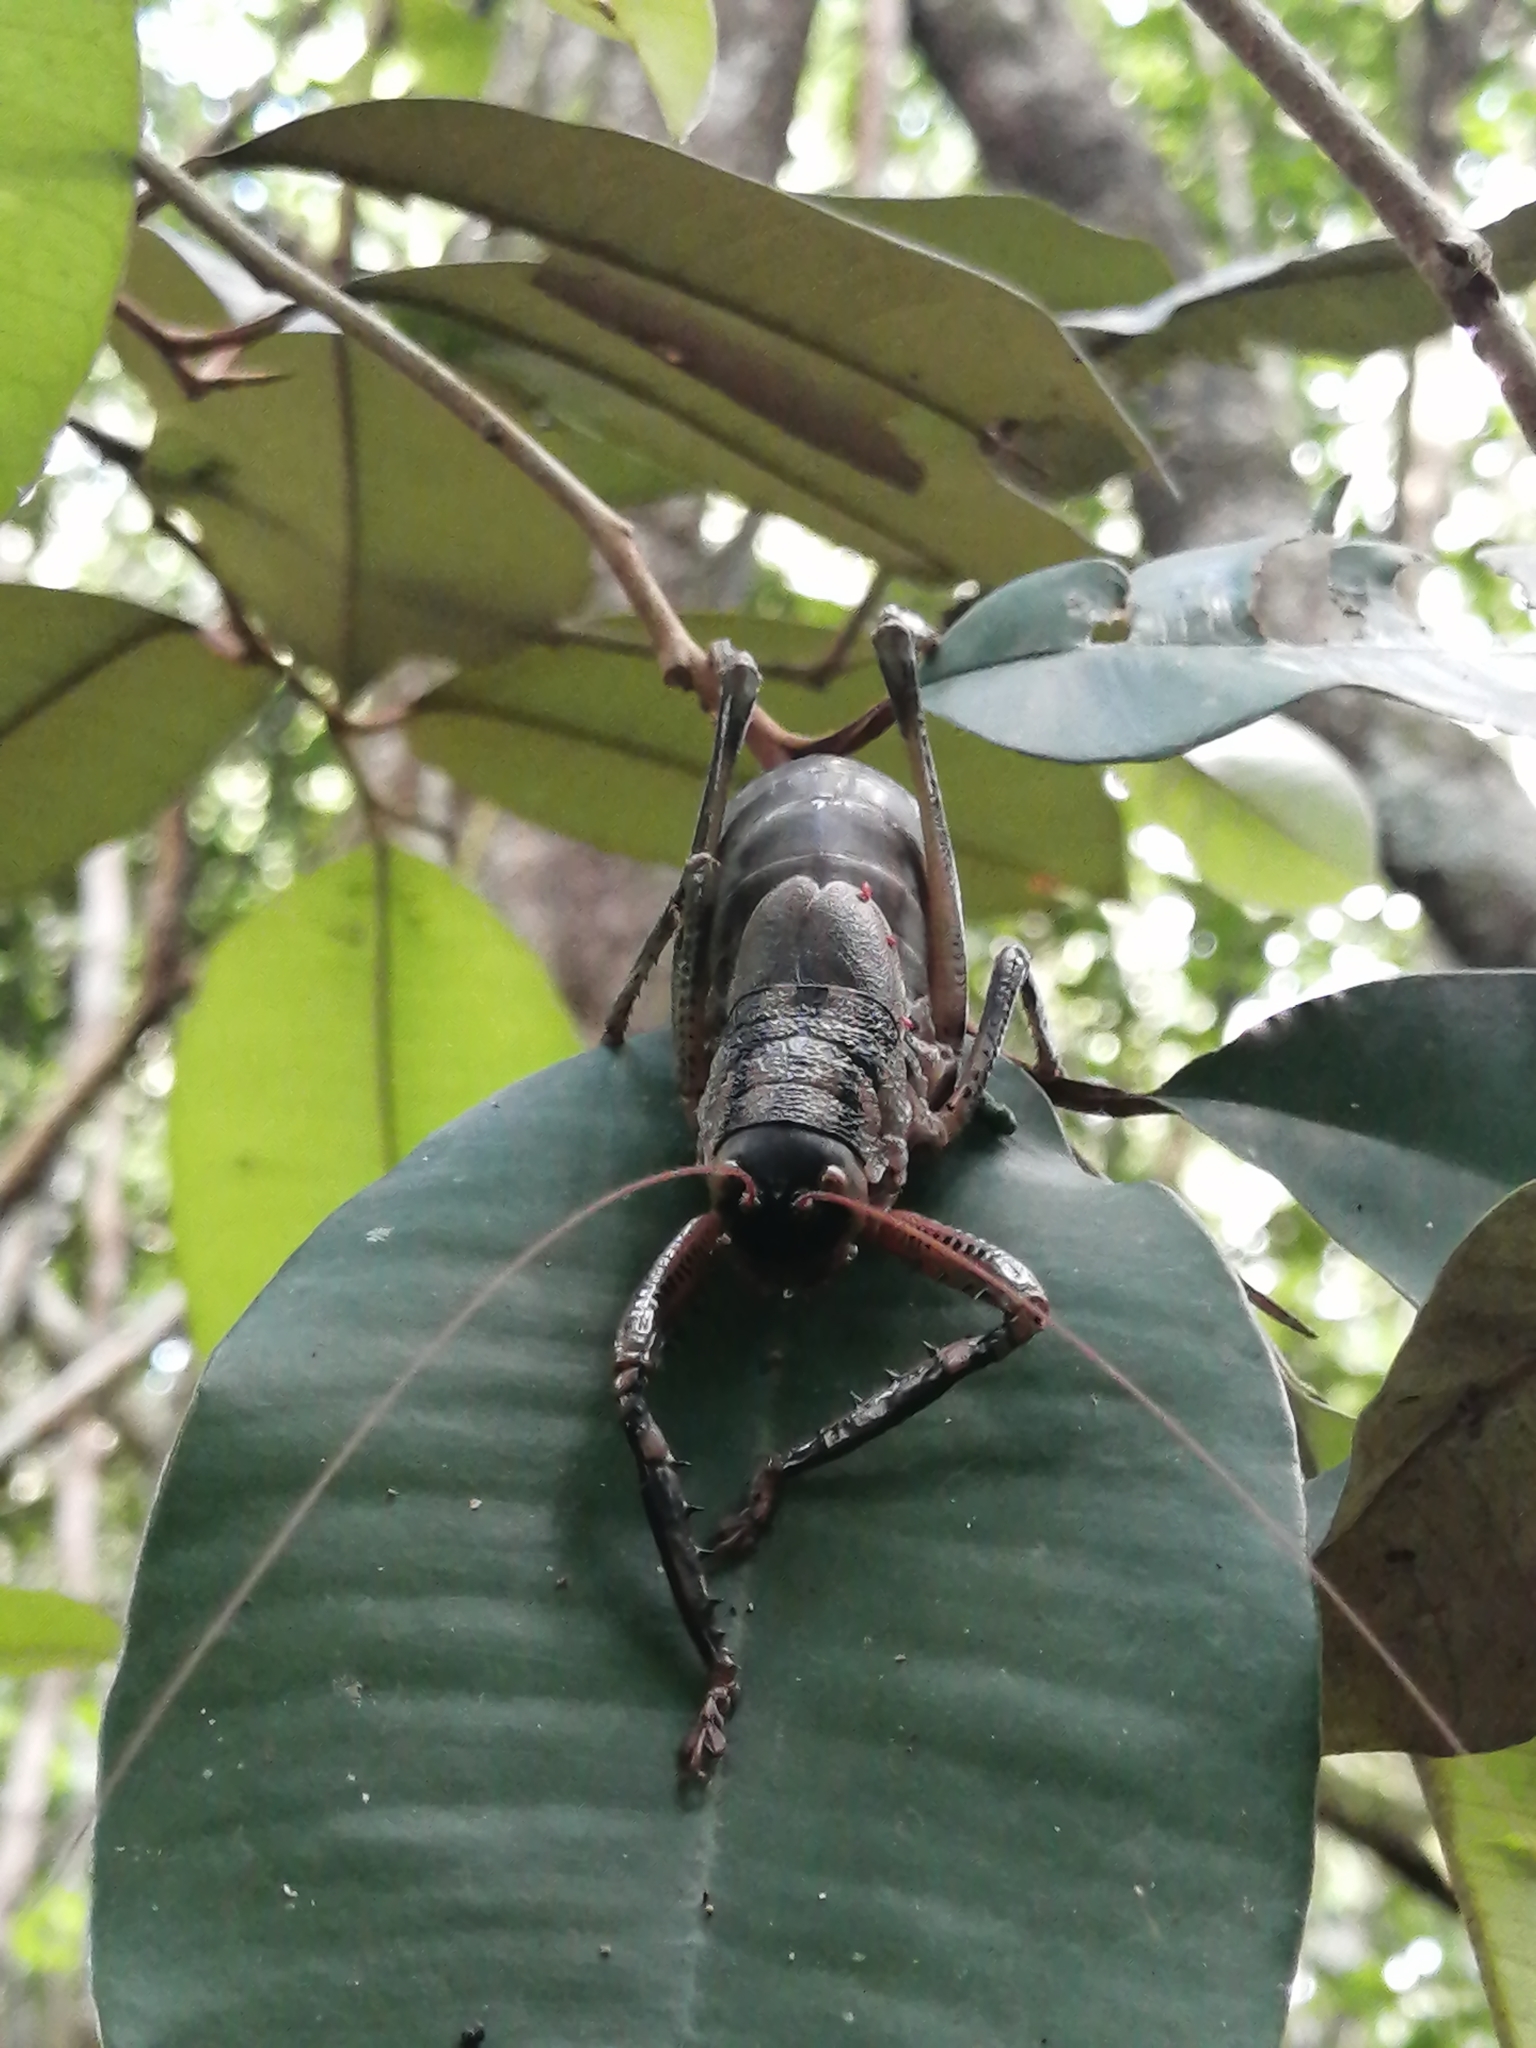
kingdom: Animalia
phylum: Arthropoda
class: Insecta
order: Orthoptera
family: Tettigoniidae
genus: Nesoecia
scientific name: Nesoecia insignis
